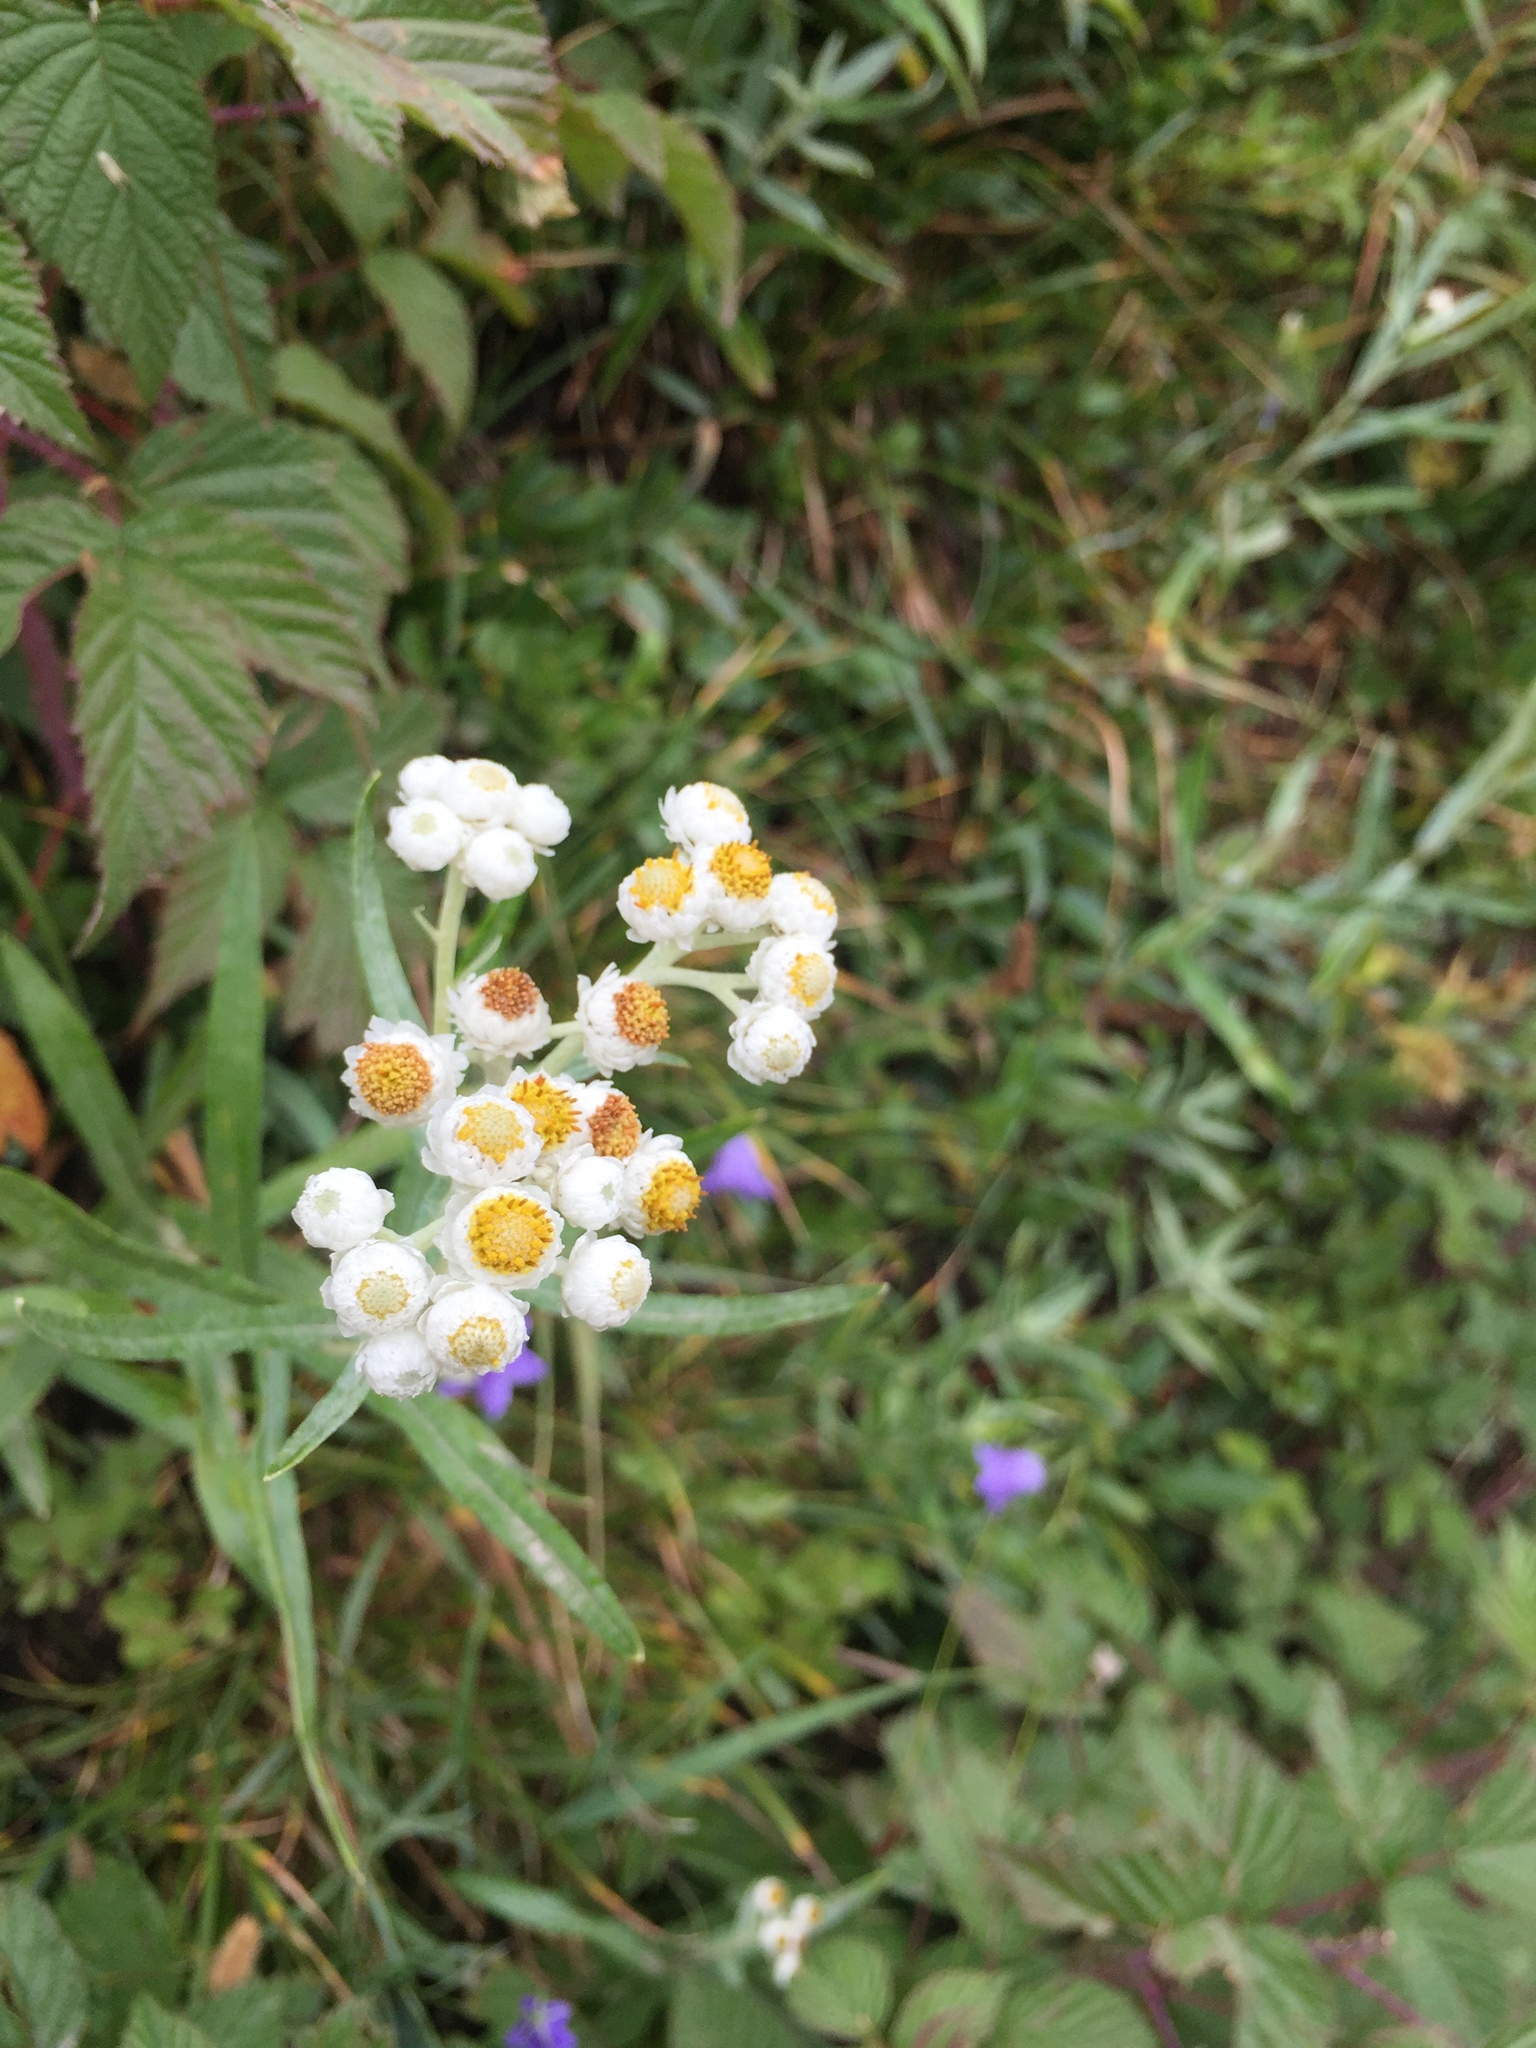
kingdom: Plantae
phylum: Tracheophyta
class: Magnoliopsida
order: Asterales
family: Asteraceae
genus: Anaphalis
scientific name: Anaphalis margaritacea
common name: Pearly everlasting
